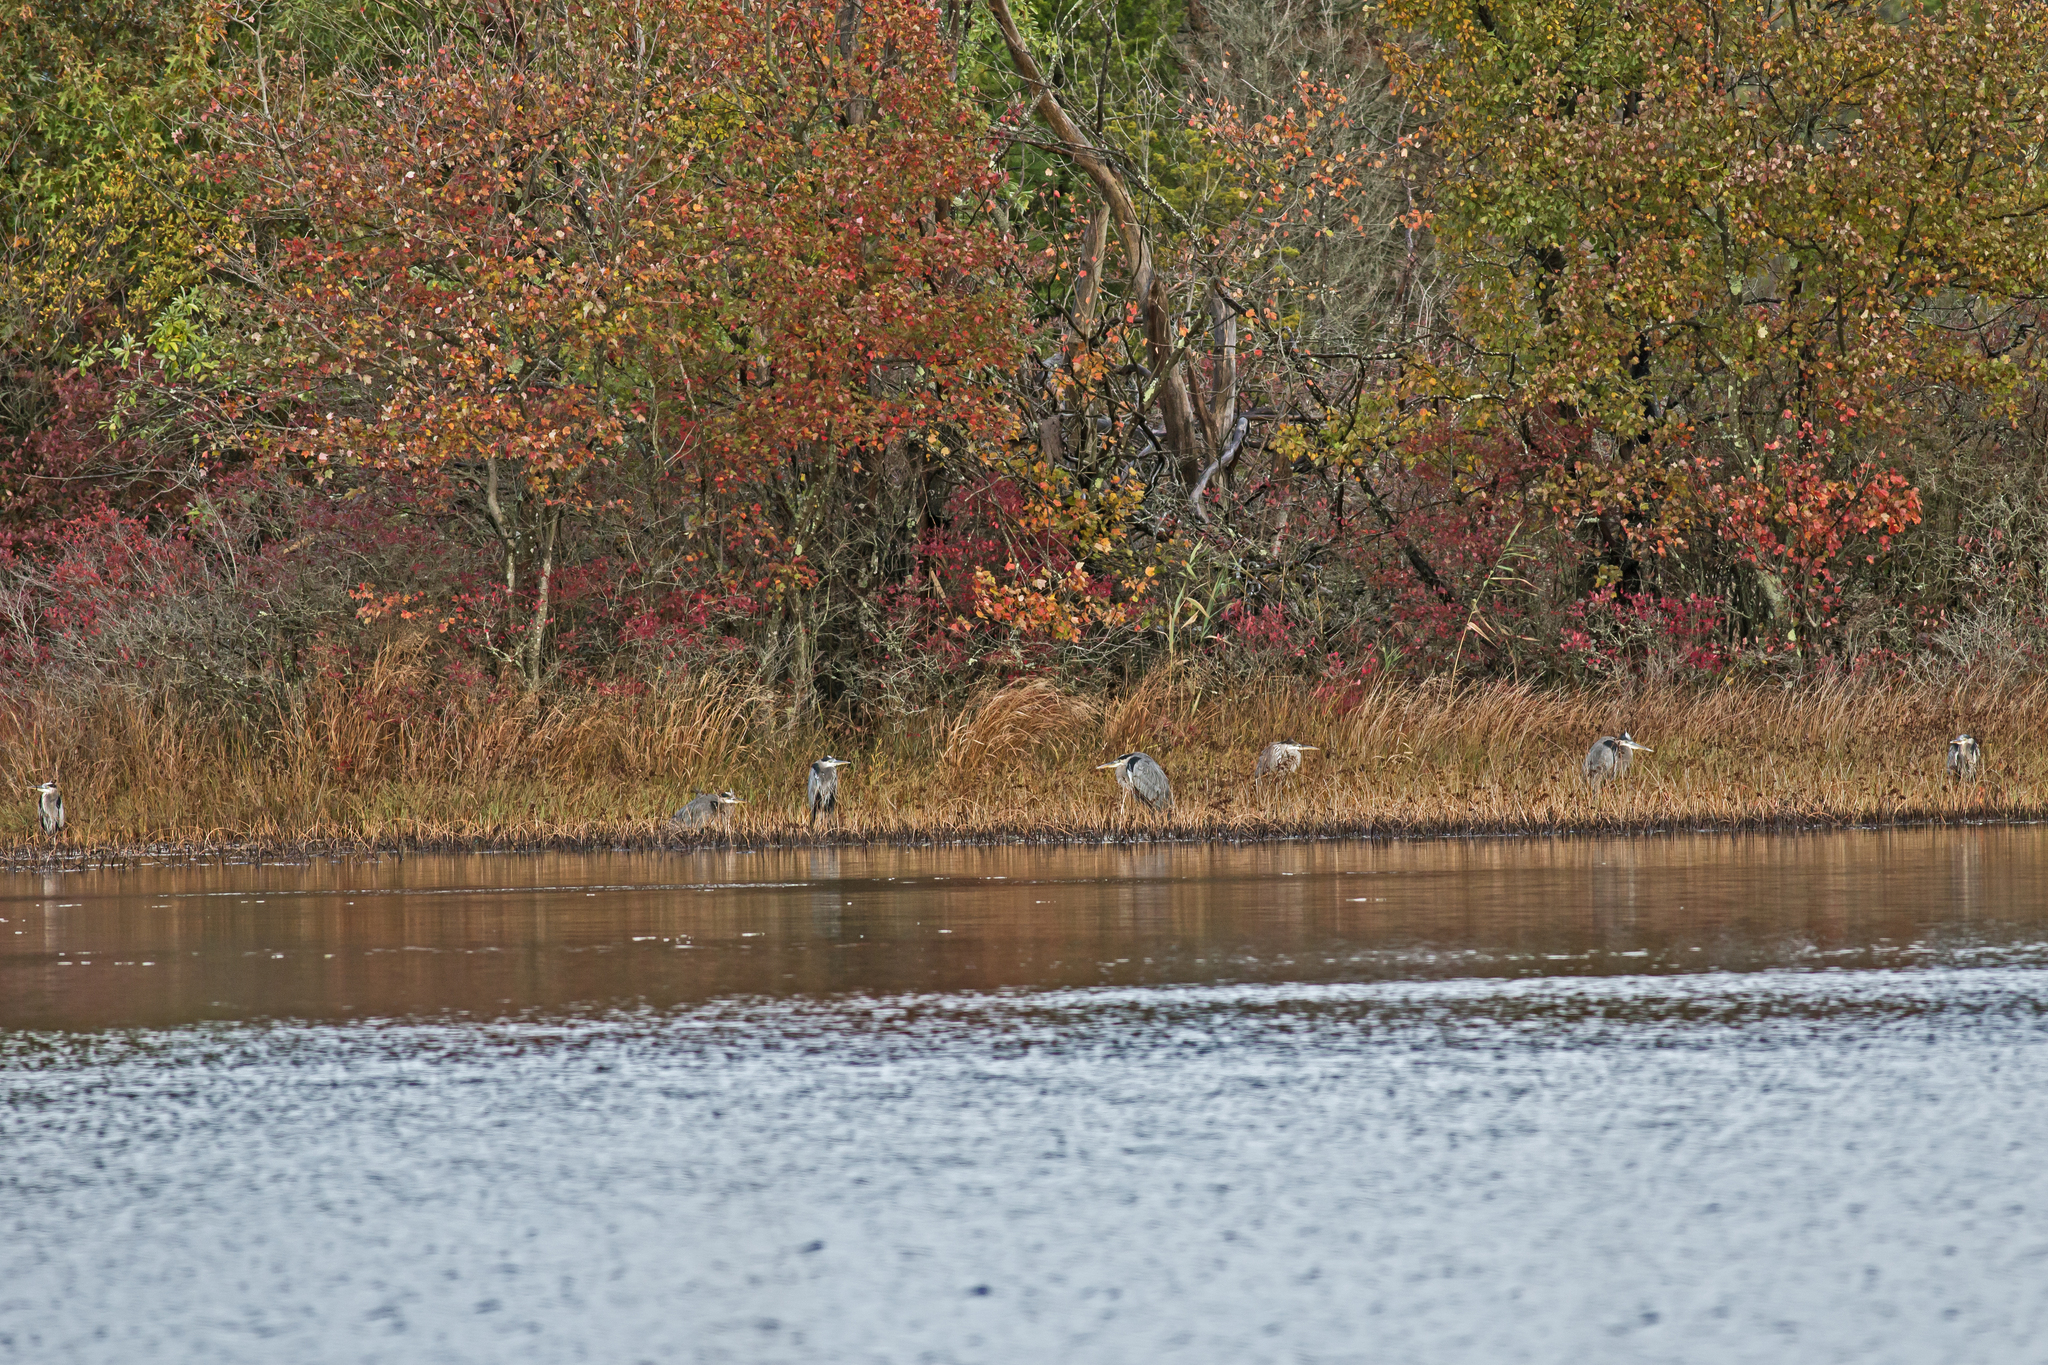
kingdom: Animalia
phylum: Chordata
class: Aves
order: Pelecaniformes
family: Ardeidae
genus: Ardea
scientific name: Ardea herodias
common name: Great blue heron
